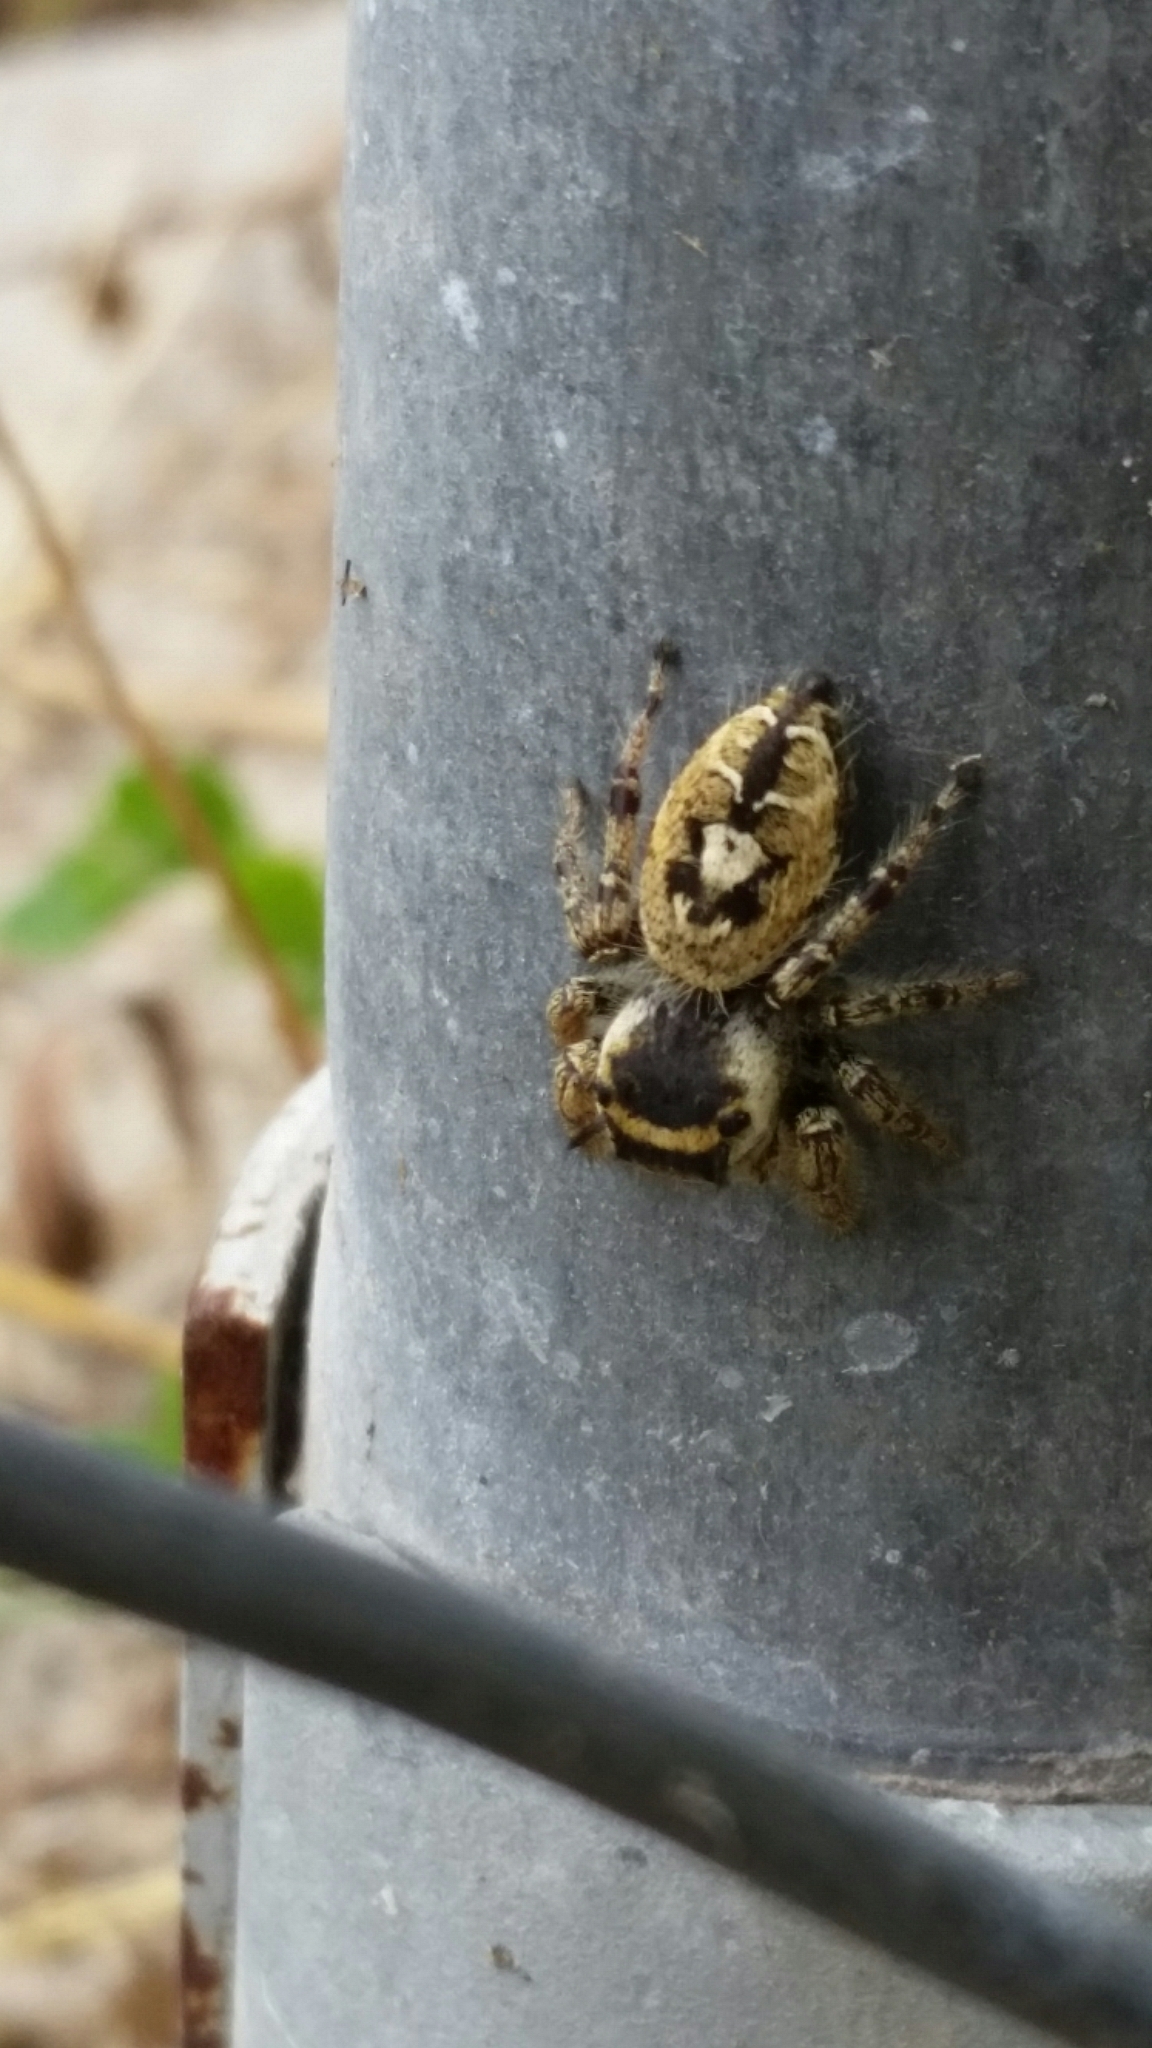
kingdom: Animalia
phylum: Arthropoda
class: Arachnida
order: Araneae
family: Salticidae
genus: Phidippus
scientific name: Phidippus arizonensis
